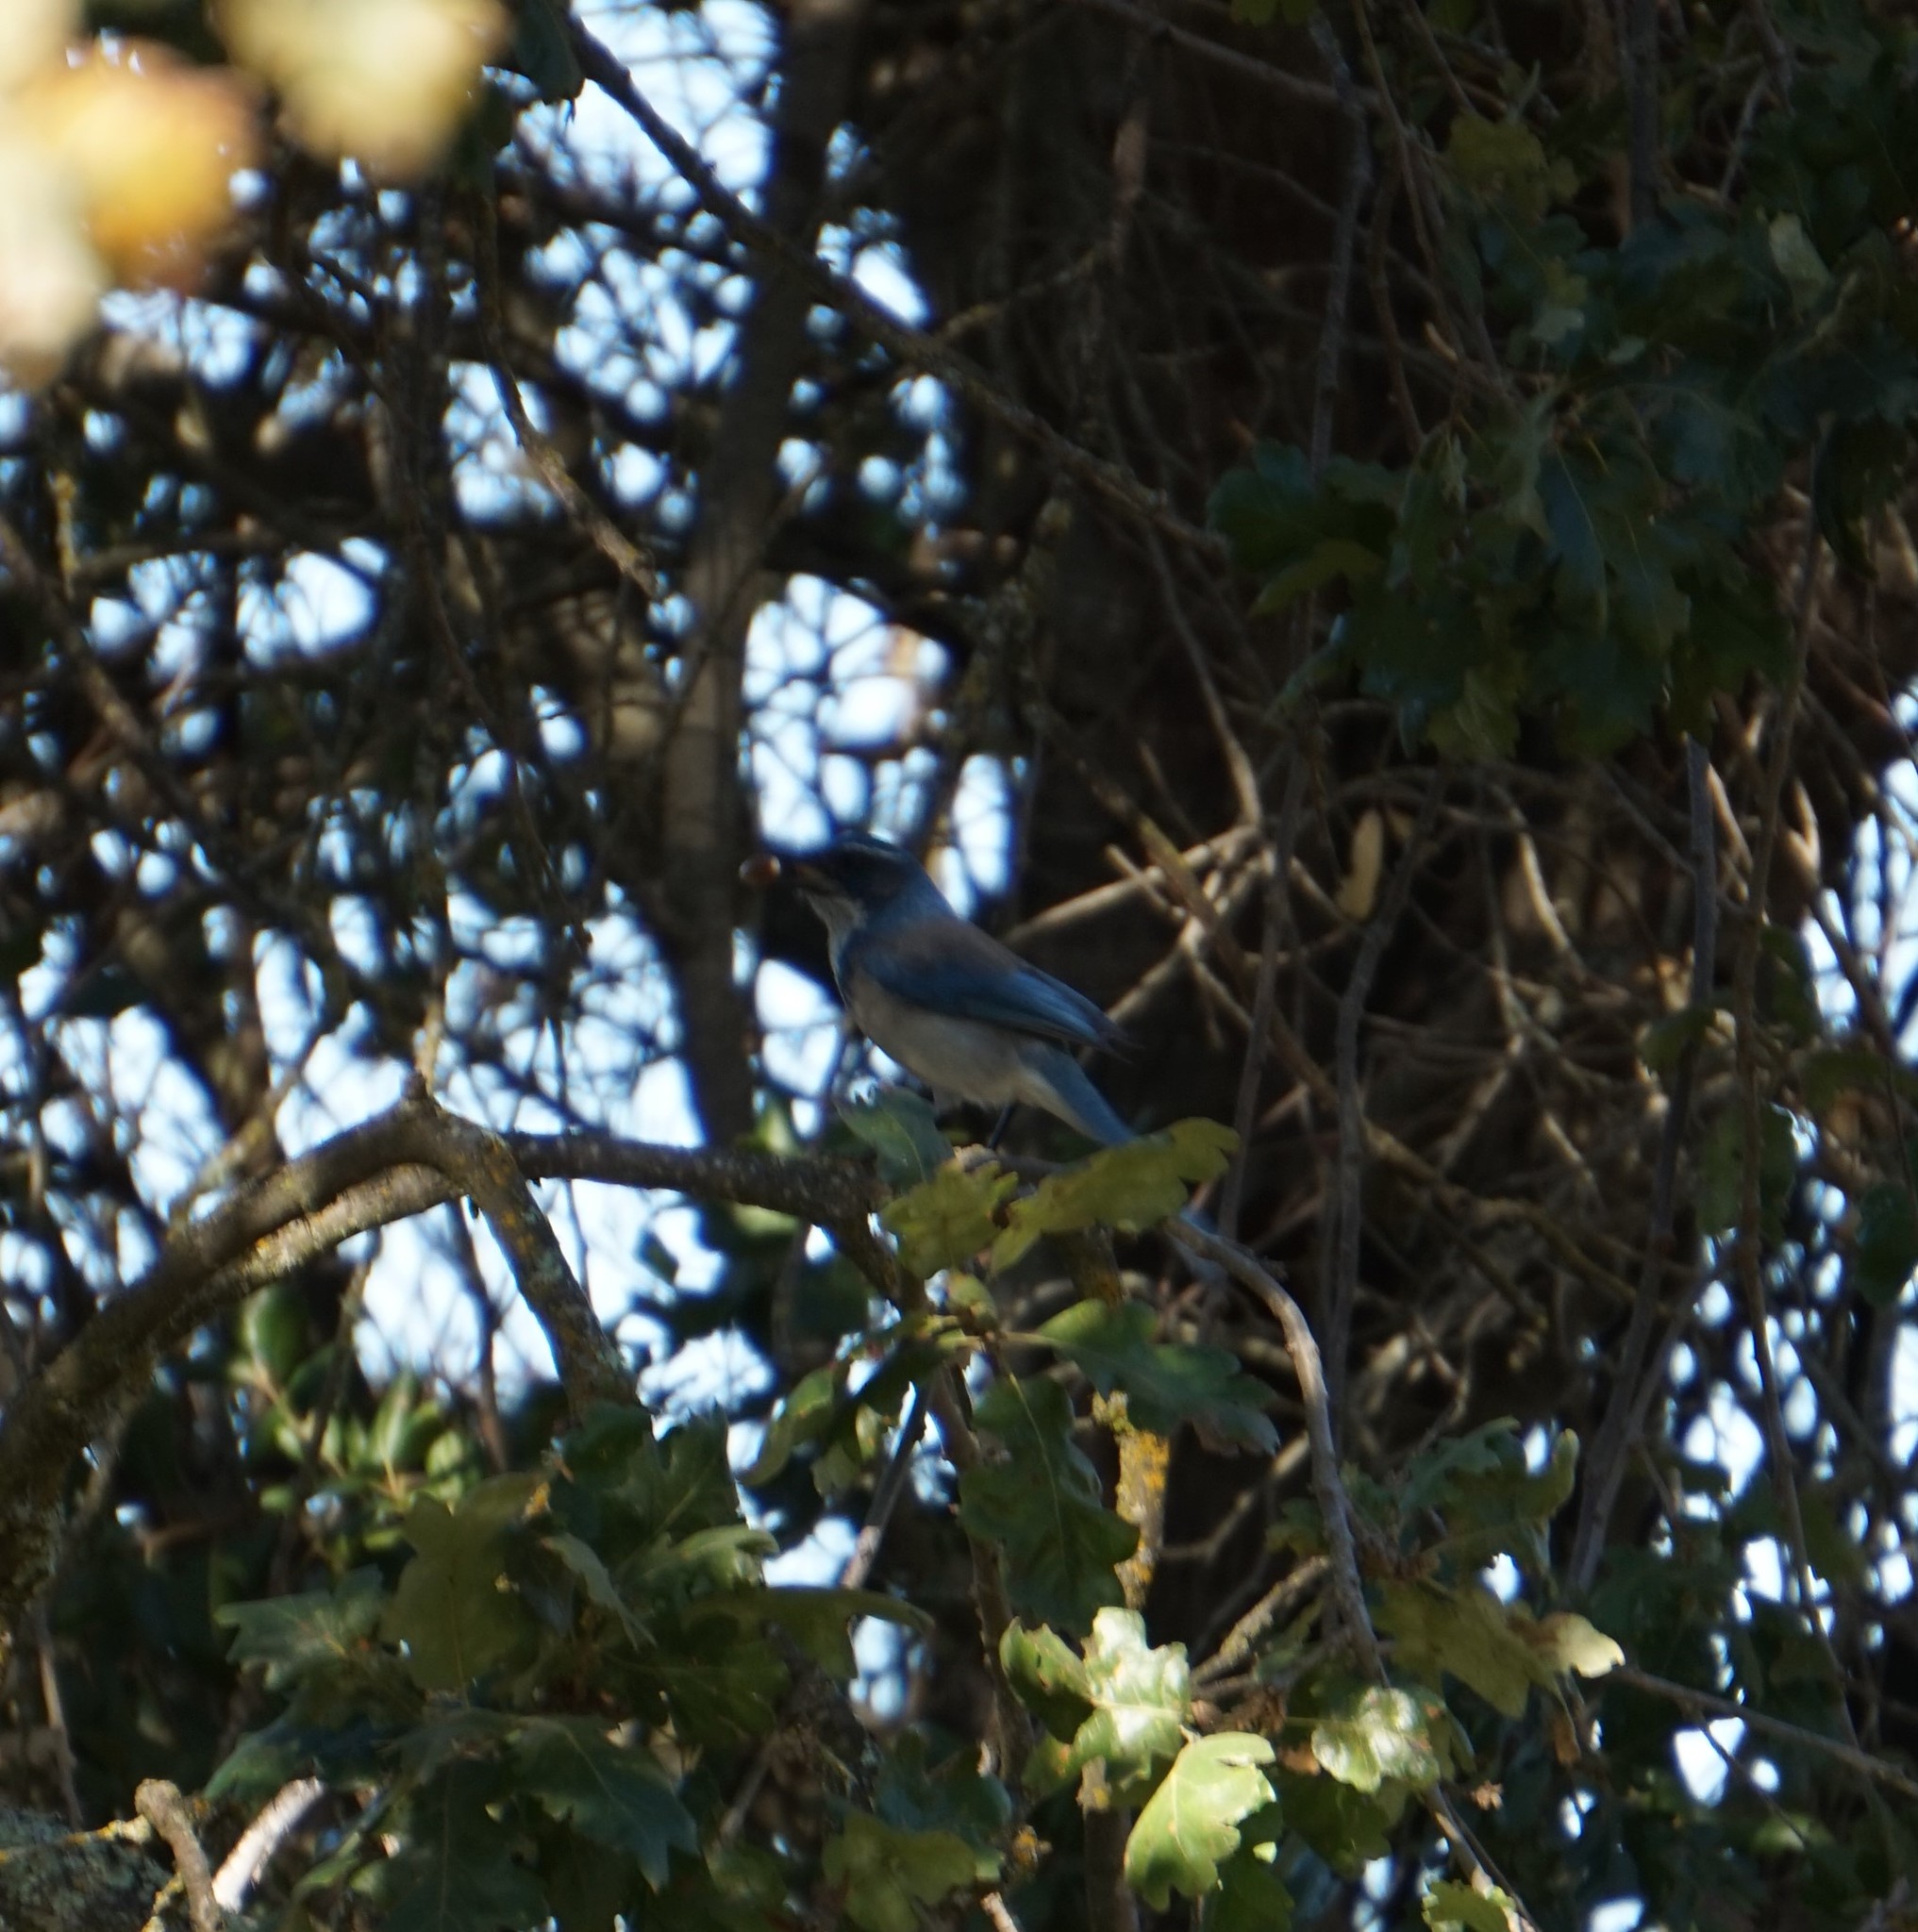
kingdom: Animalia
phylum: Chordata
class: Aves
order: Passeriformes
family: Corvidae
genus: Aphelocoma
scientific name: Aphelocoma californica
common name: California scrub-jay
